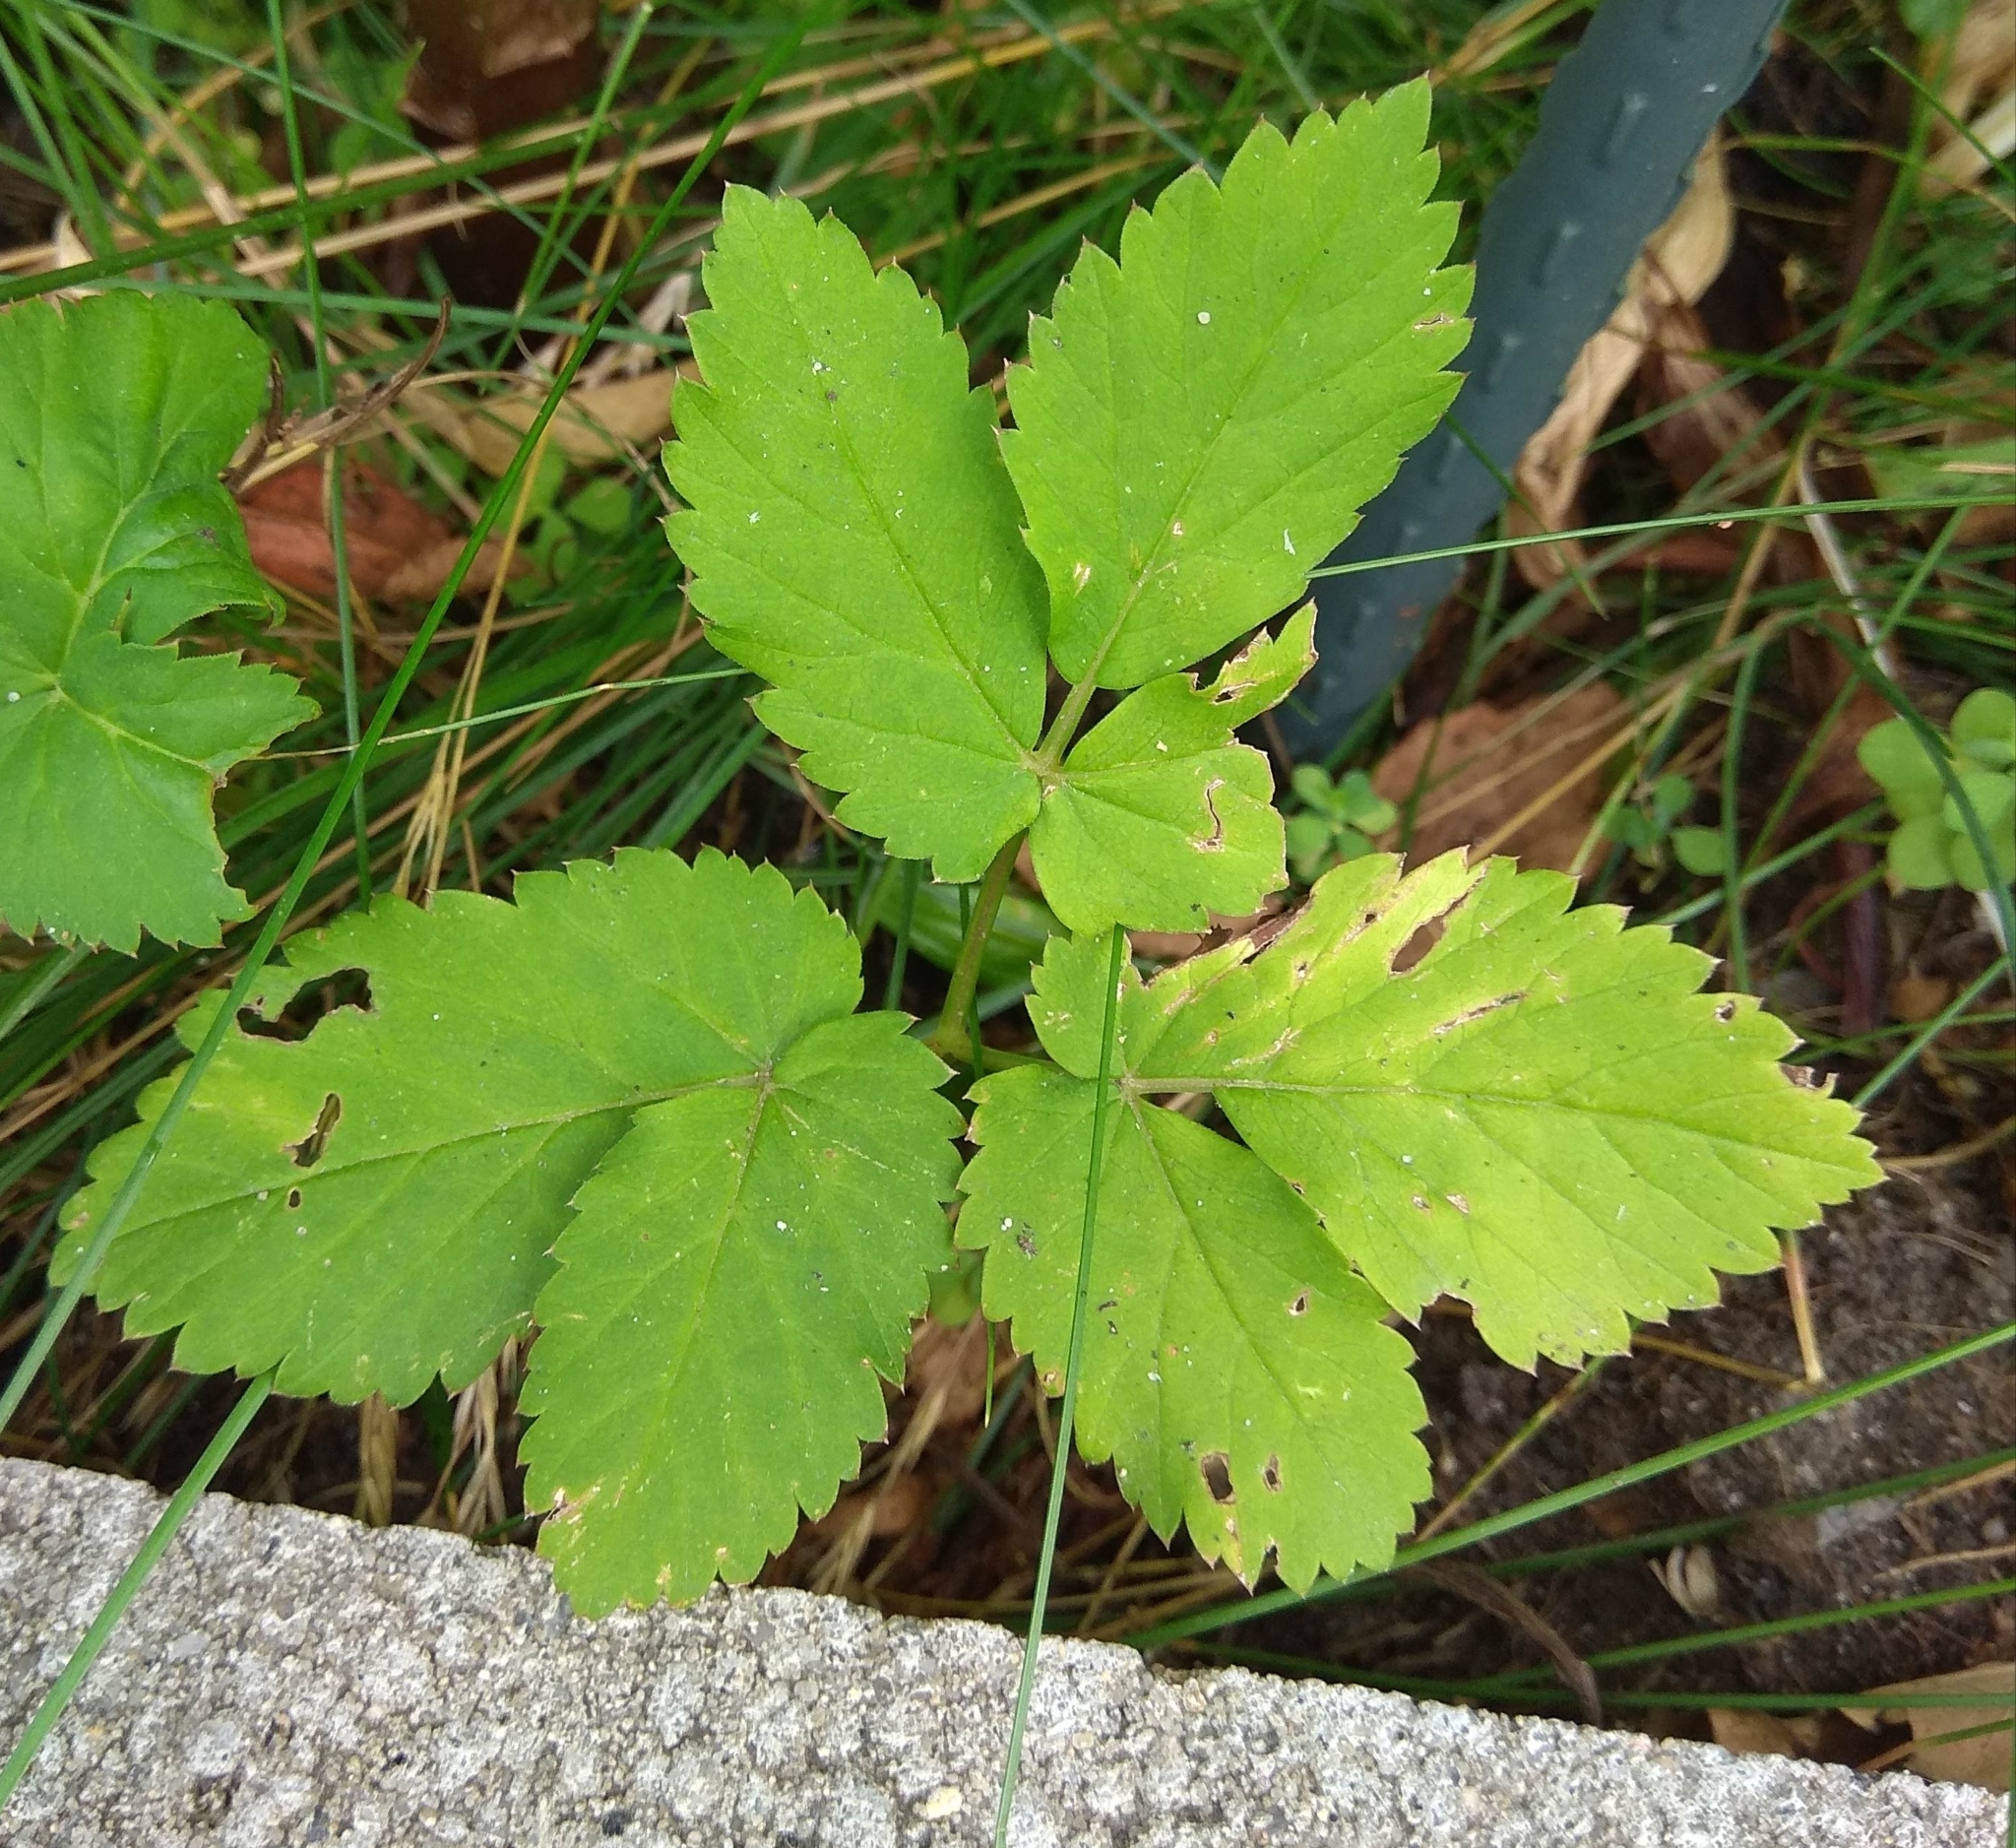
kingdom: Plantae
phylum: Tracheophyta
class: Magnoliopsida
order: Apiales
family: Apiaceae
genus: Aegopodium
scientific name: Aegopodium podagraria
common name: Ground-elder
